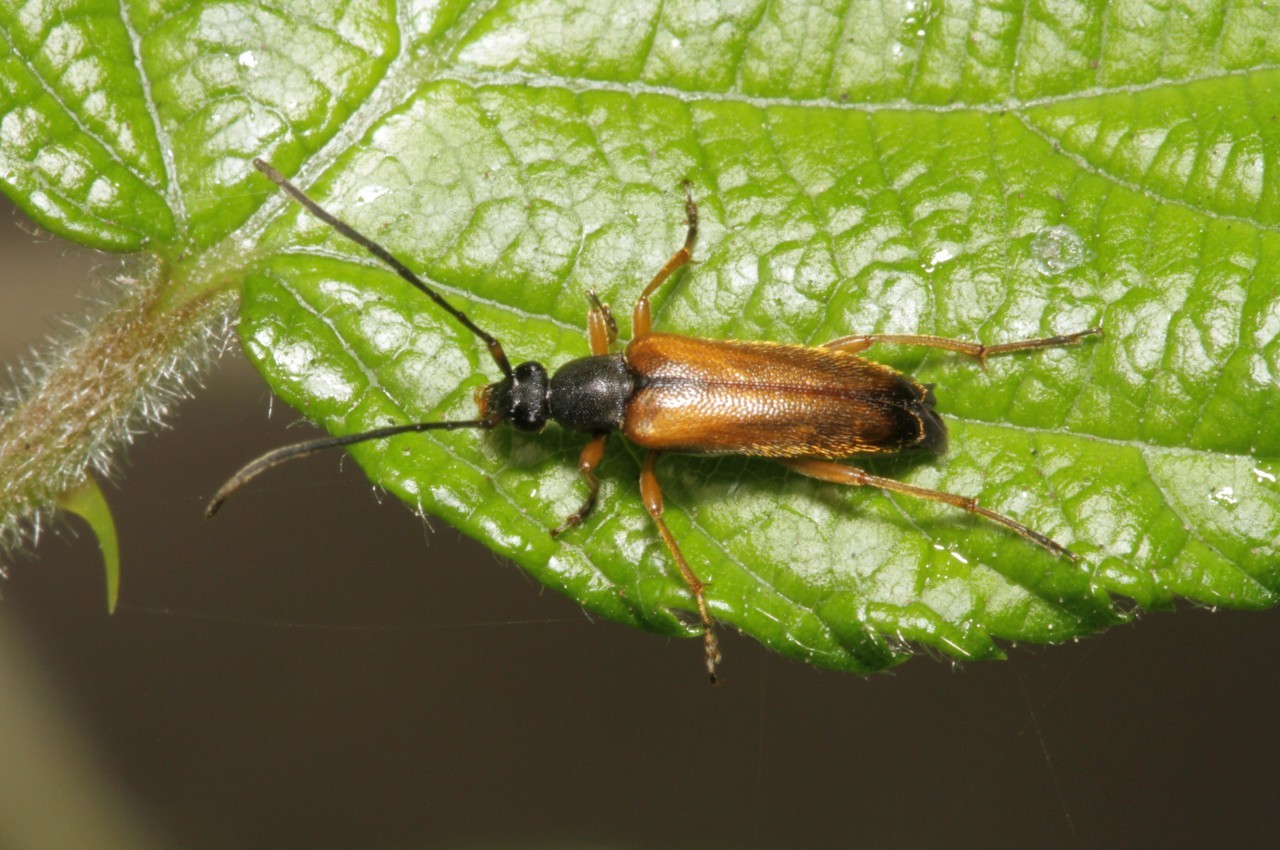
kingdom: Animalia
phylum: Arthropoda
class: Insecta
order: Coleoptera
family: Cerambycidae
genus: Alosterna
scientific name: Alosterna tabacicolor
